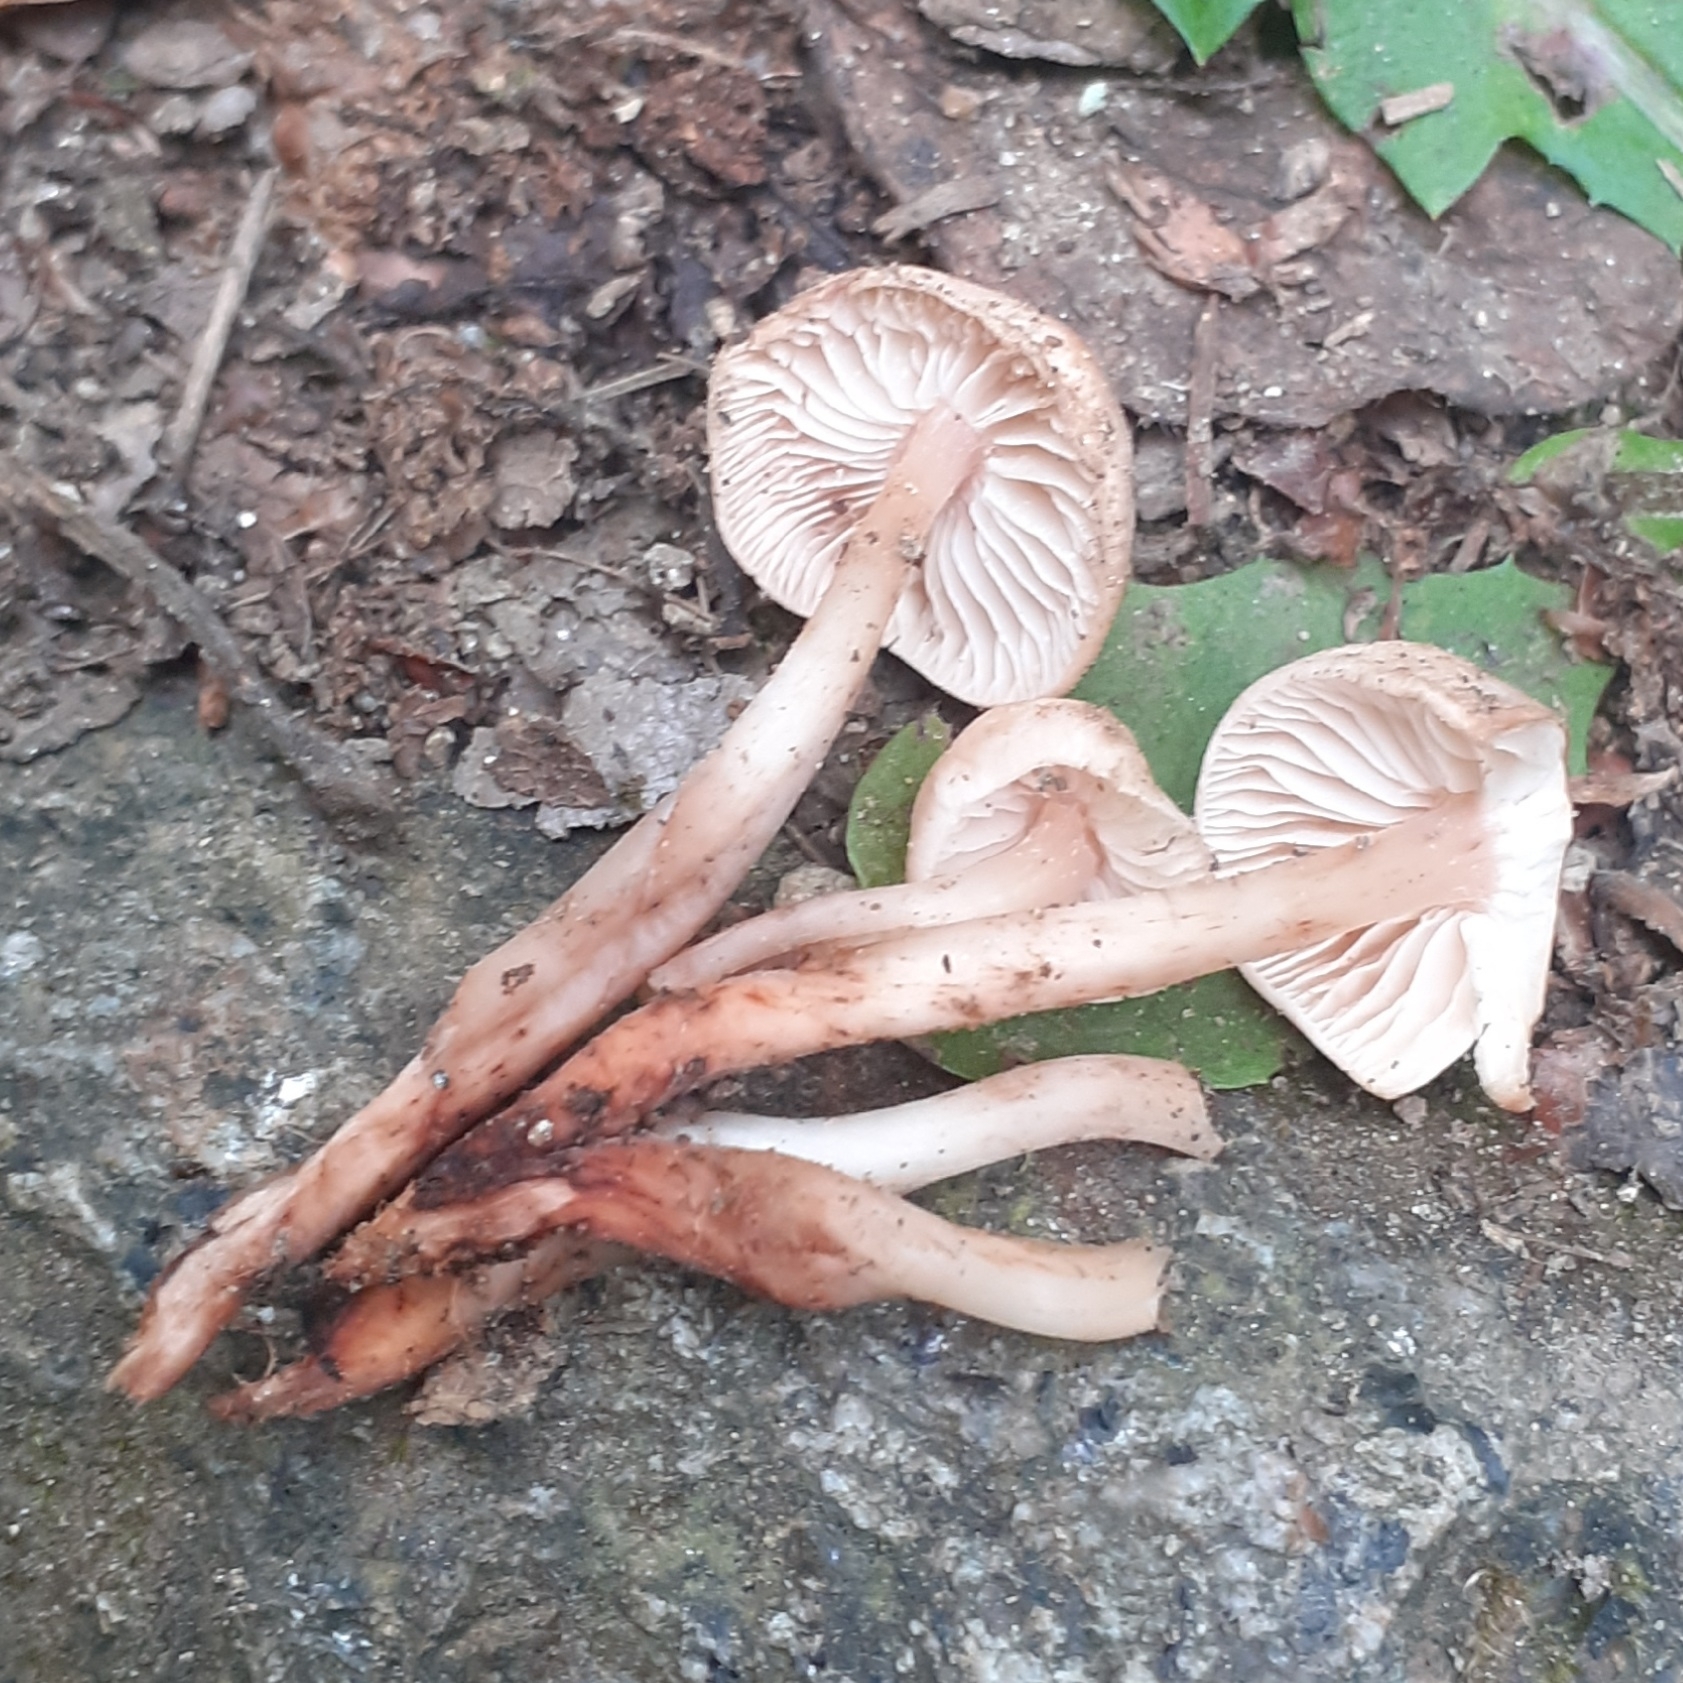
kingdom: Fungi
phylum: Basidiomycota
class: Agaricomycetes
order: Agaricales
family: Omphalotaceae
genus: Gymnopus
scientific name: Gymnopus fusipes
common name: Spindle shank
